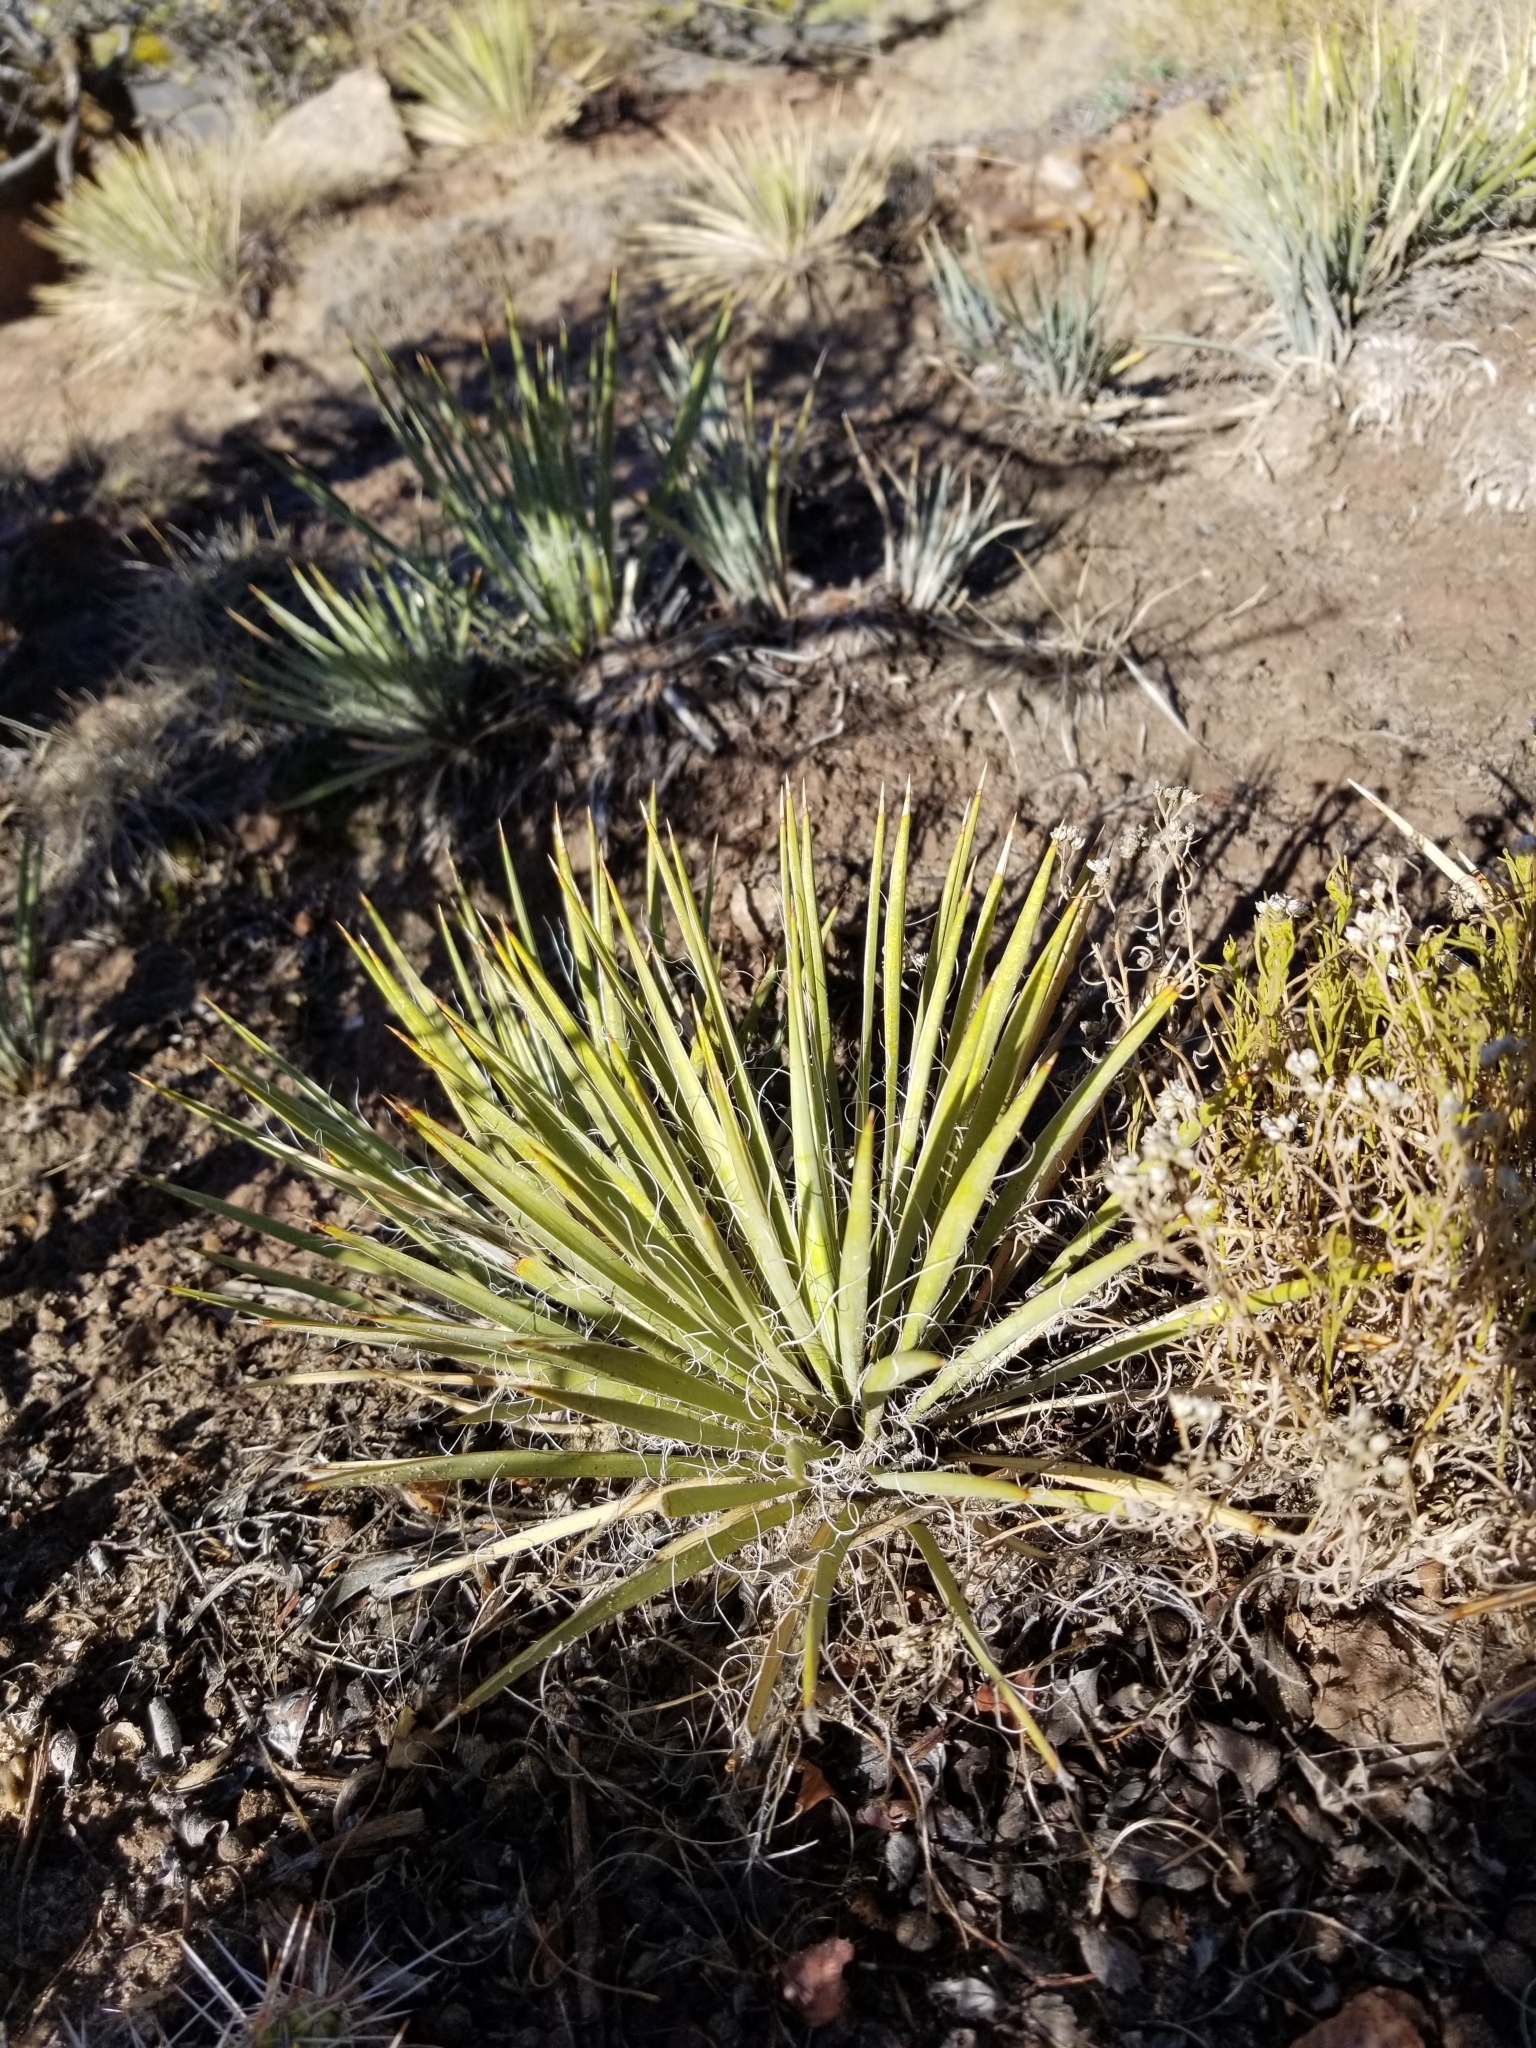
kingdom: Plantae
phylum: Tracheophyta
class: Liliopsida
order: Asparagales
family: Asparagaceae
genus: Yucca
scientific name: Yucca harrimaniae
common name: Harriman's yucca
